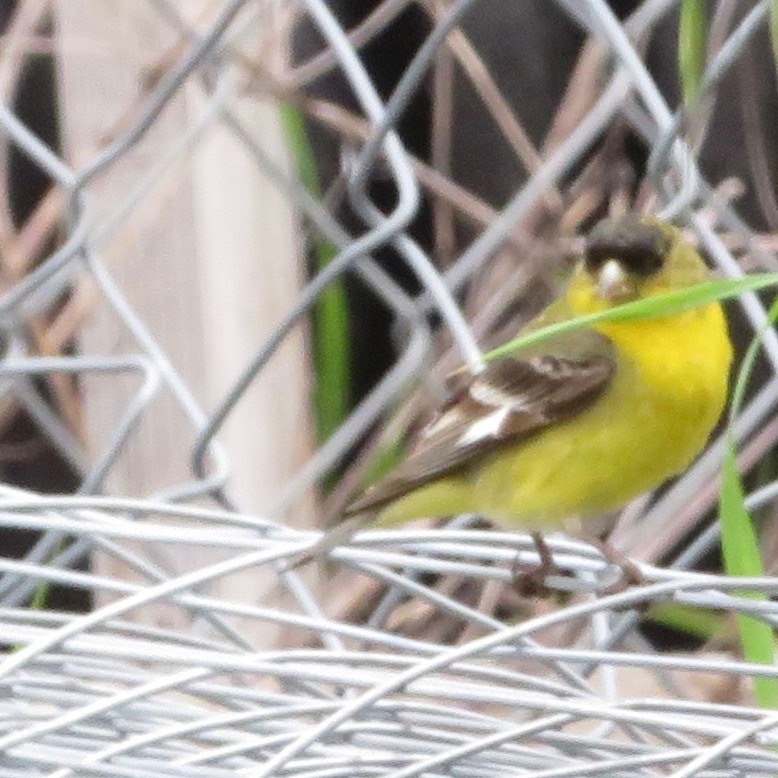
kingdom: Animalia
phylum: Chordata
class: Aves
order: Passeriformes
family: Fringillidae
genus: Spinus
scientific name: Spinus psaltria
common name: Lesser goldfinch
